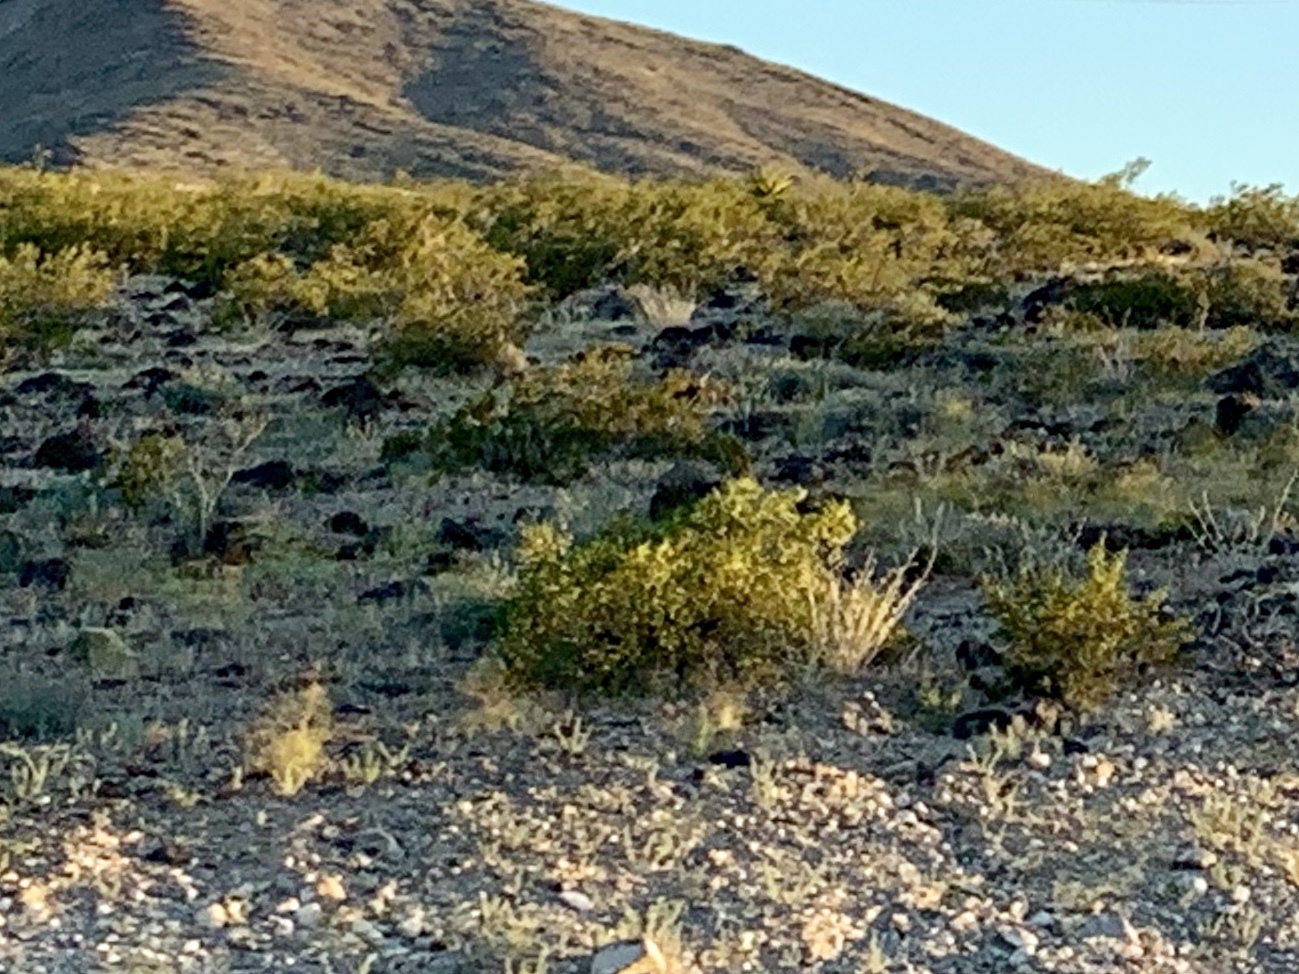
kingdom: Plantae
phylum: Tracheophyta
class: Magnoliopsida
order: Zygophyllales
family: Zygophyllaceae
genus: Larrea
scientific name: Larrea tridentata
